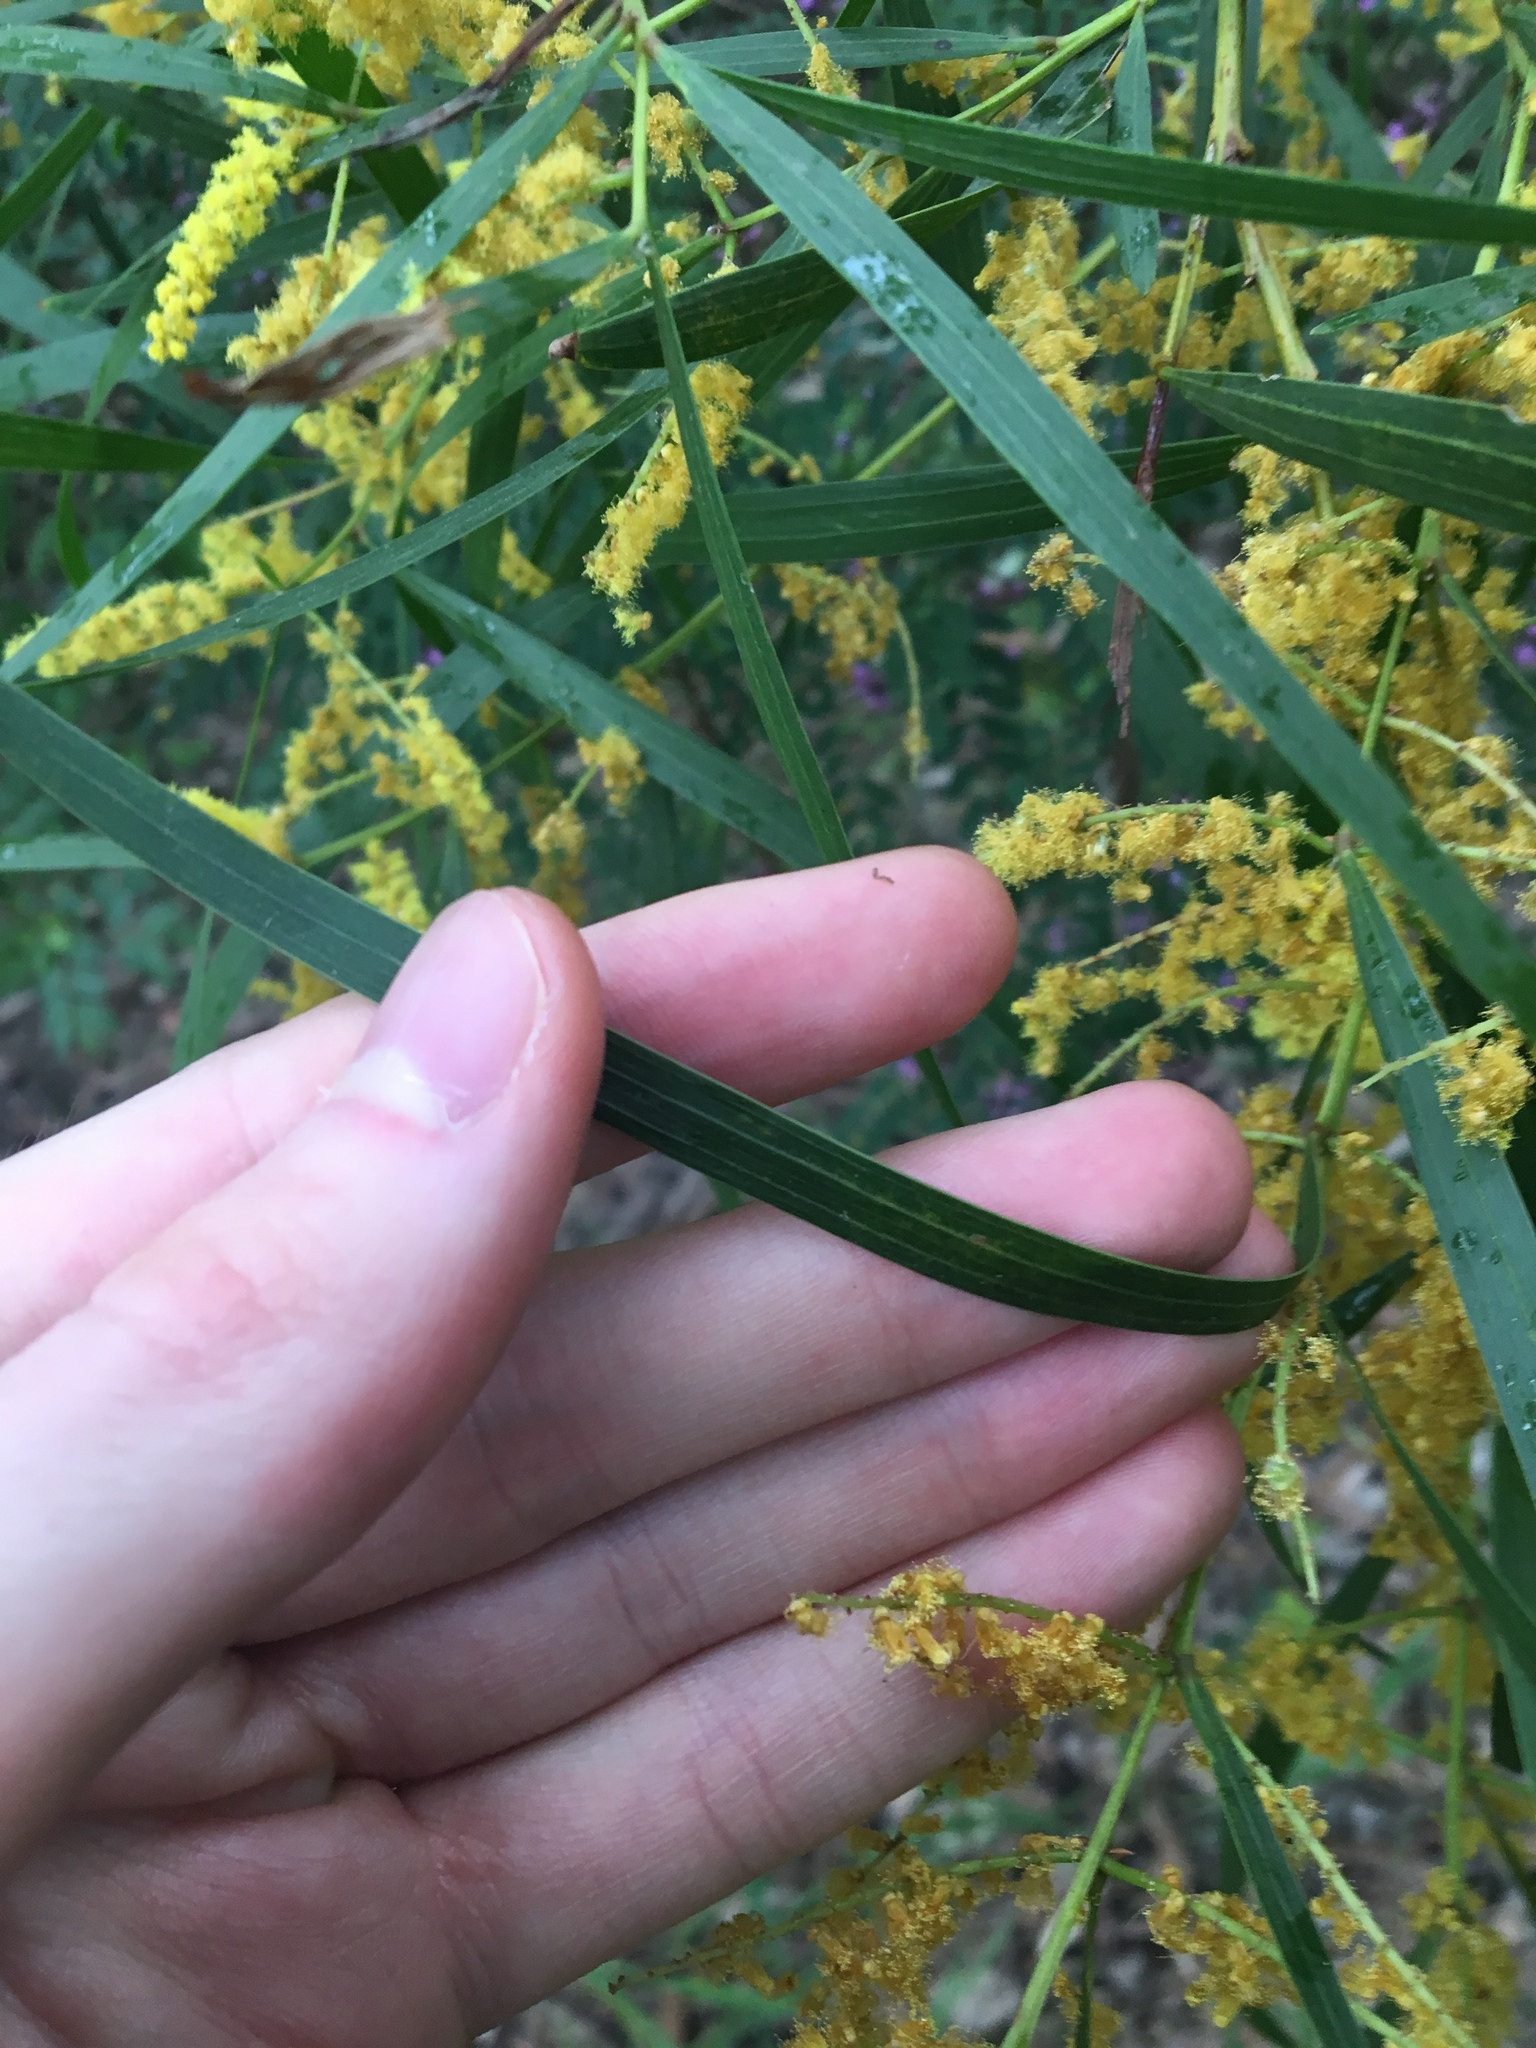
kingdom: Plantae
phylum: Tracheophyta
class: Magnoliopsida
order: Fabales
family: Fabaceae
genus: Acacia
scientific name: Acacia longifolia
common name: Sydney golden wattle
